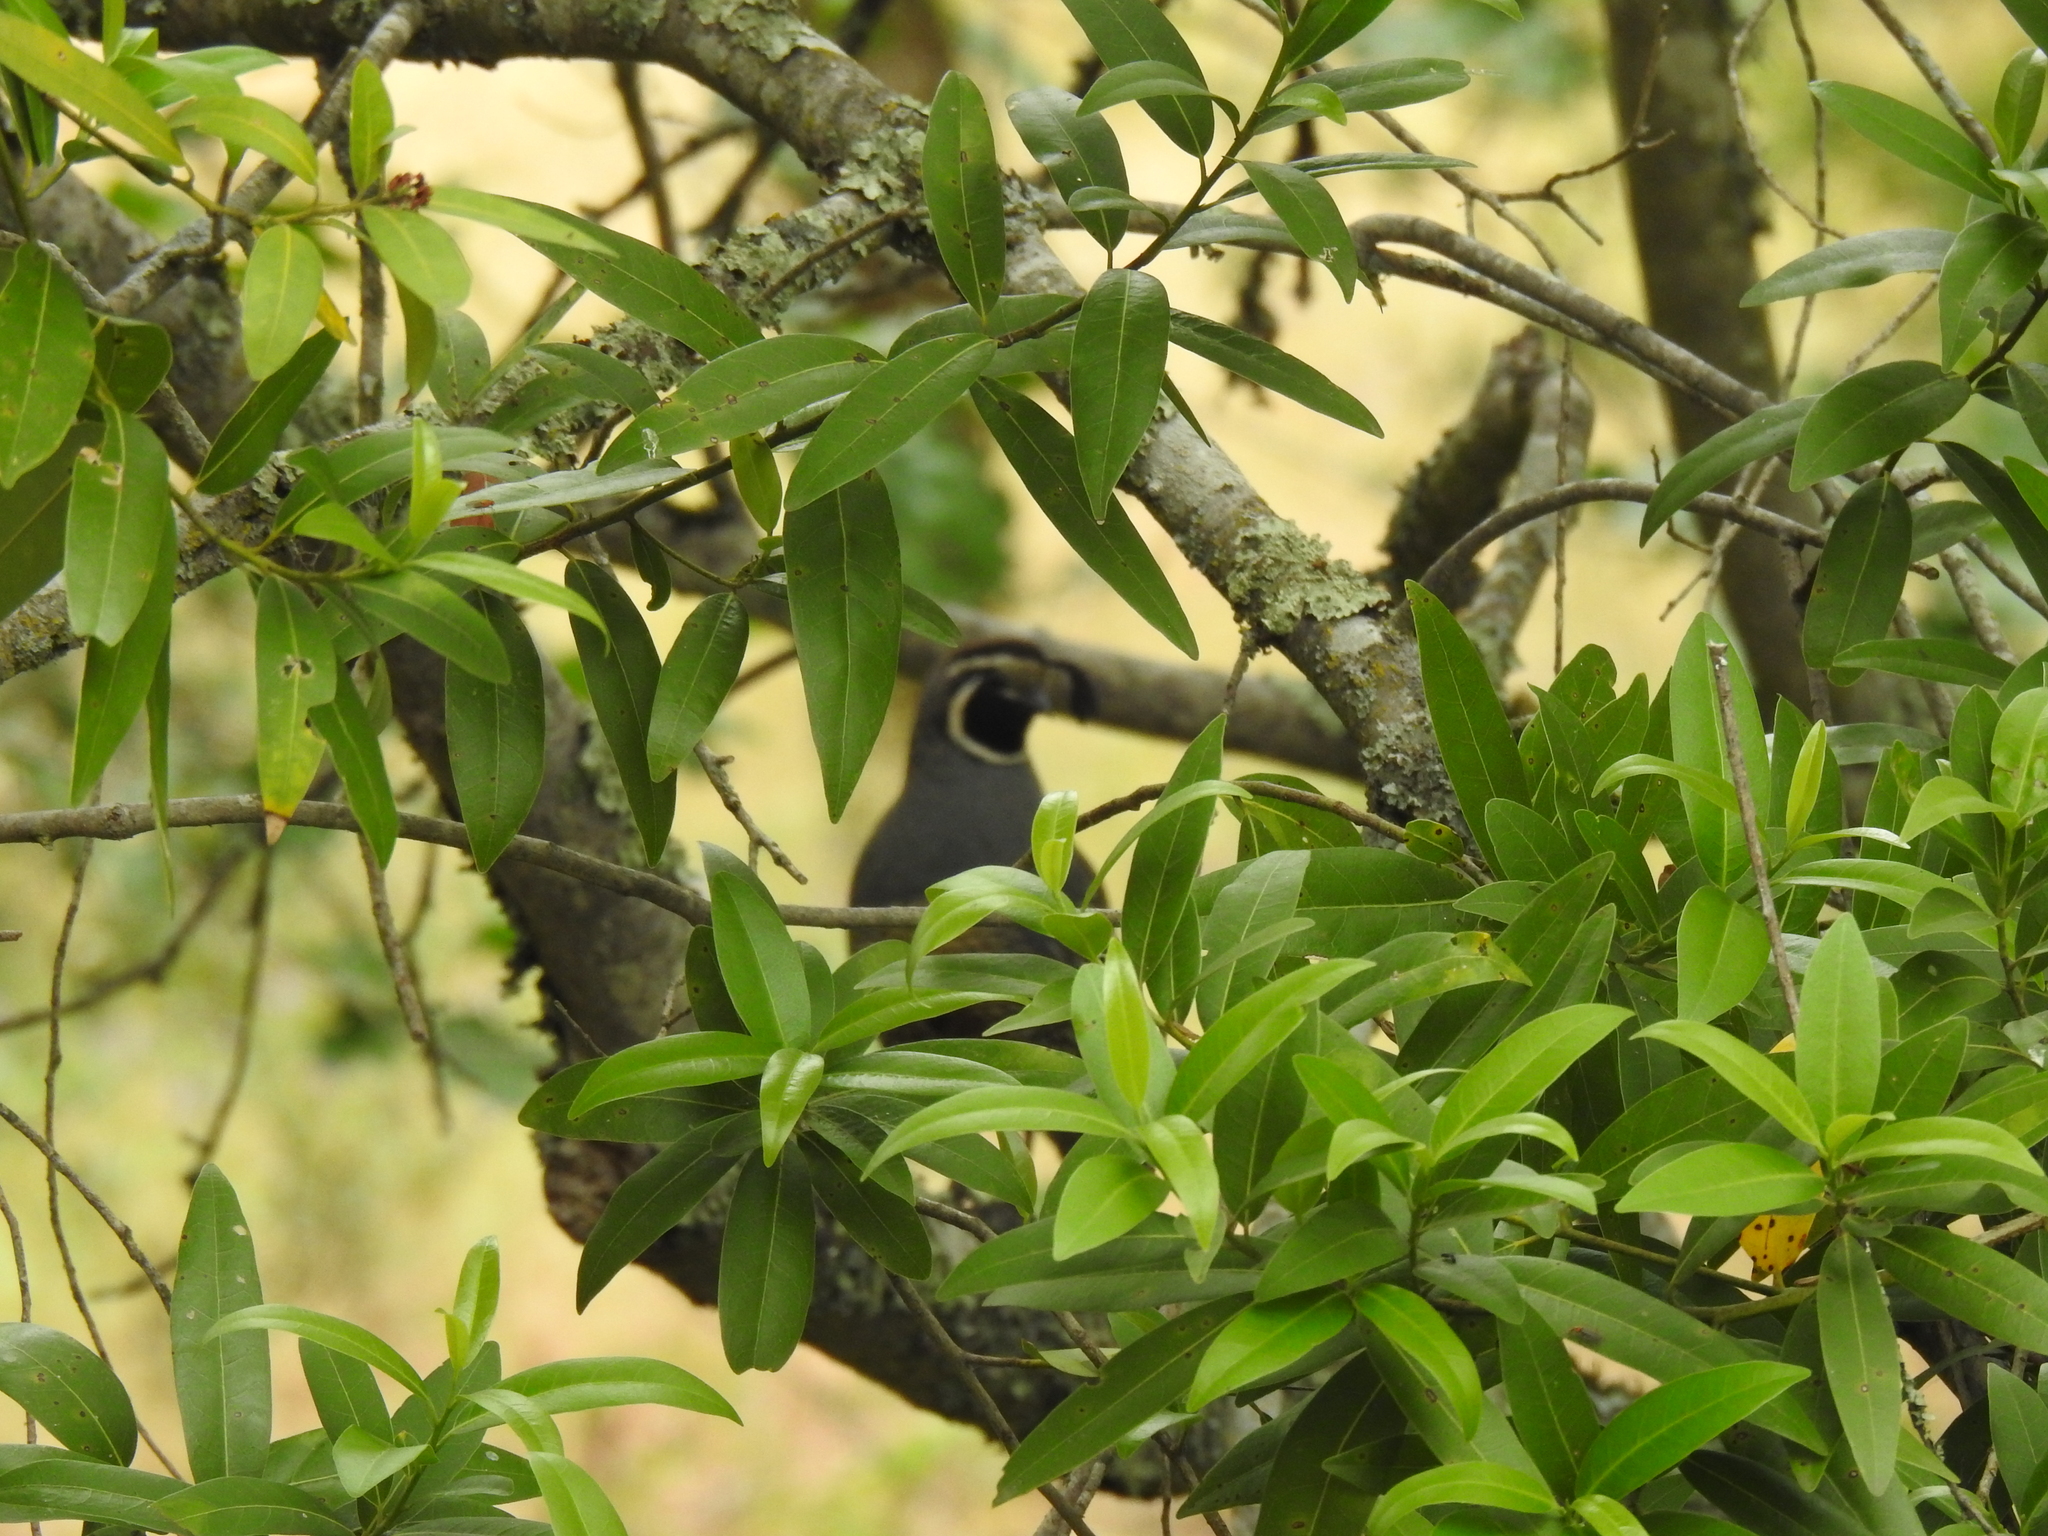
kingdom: Animalia
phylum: Chordata
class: Aves
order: Galliformes
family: Odontophoridae
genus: Callipepla
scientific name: Callipepla californica
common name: California quail
